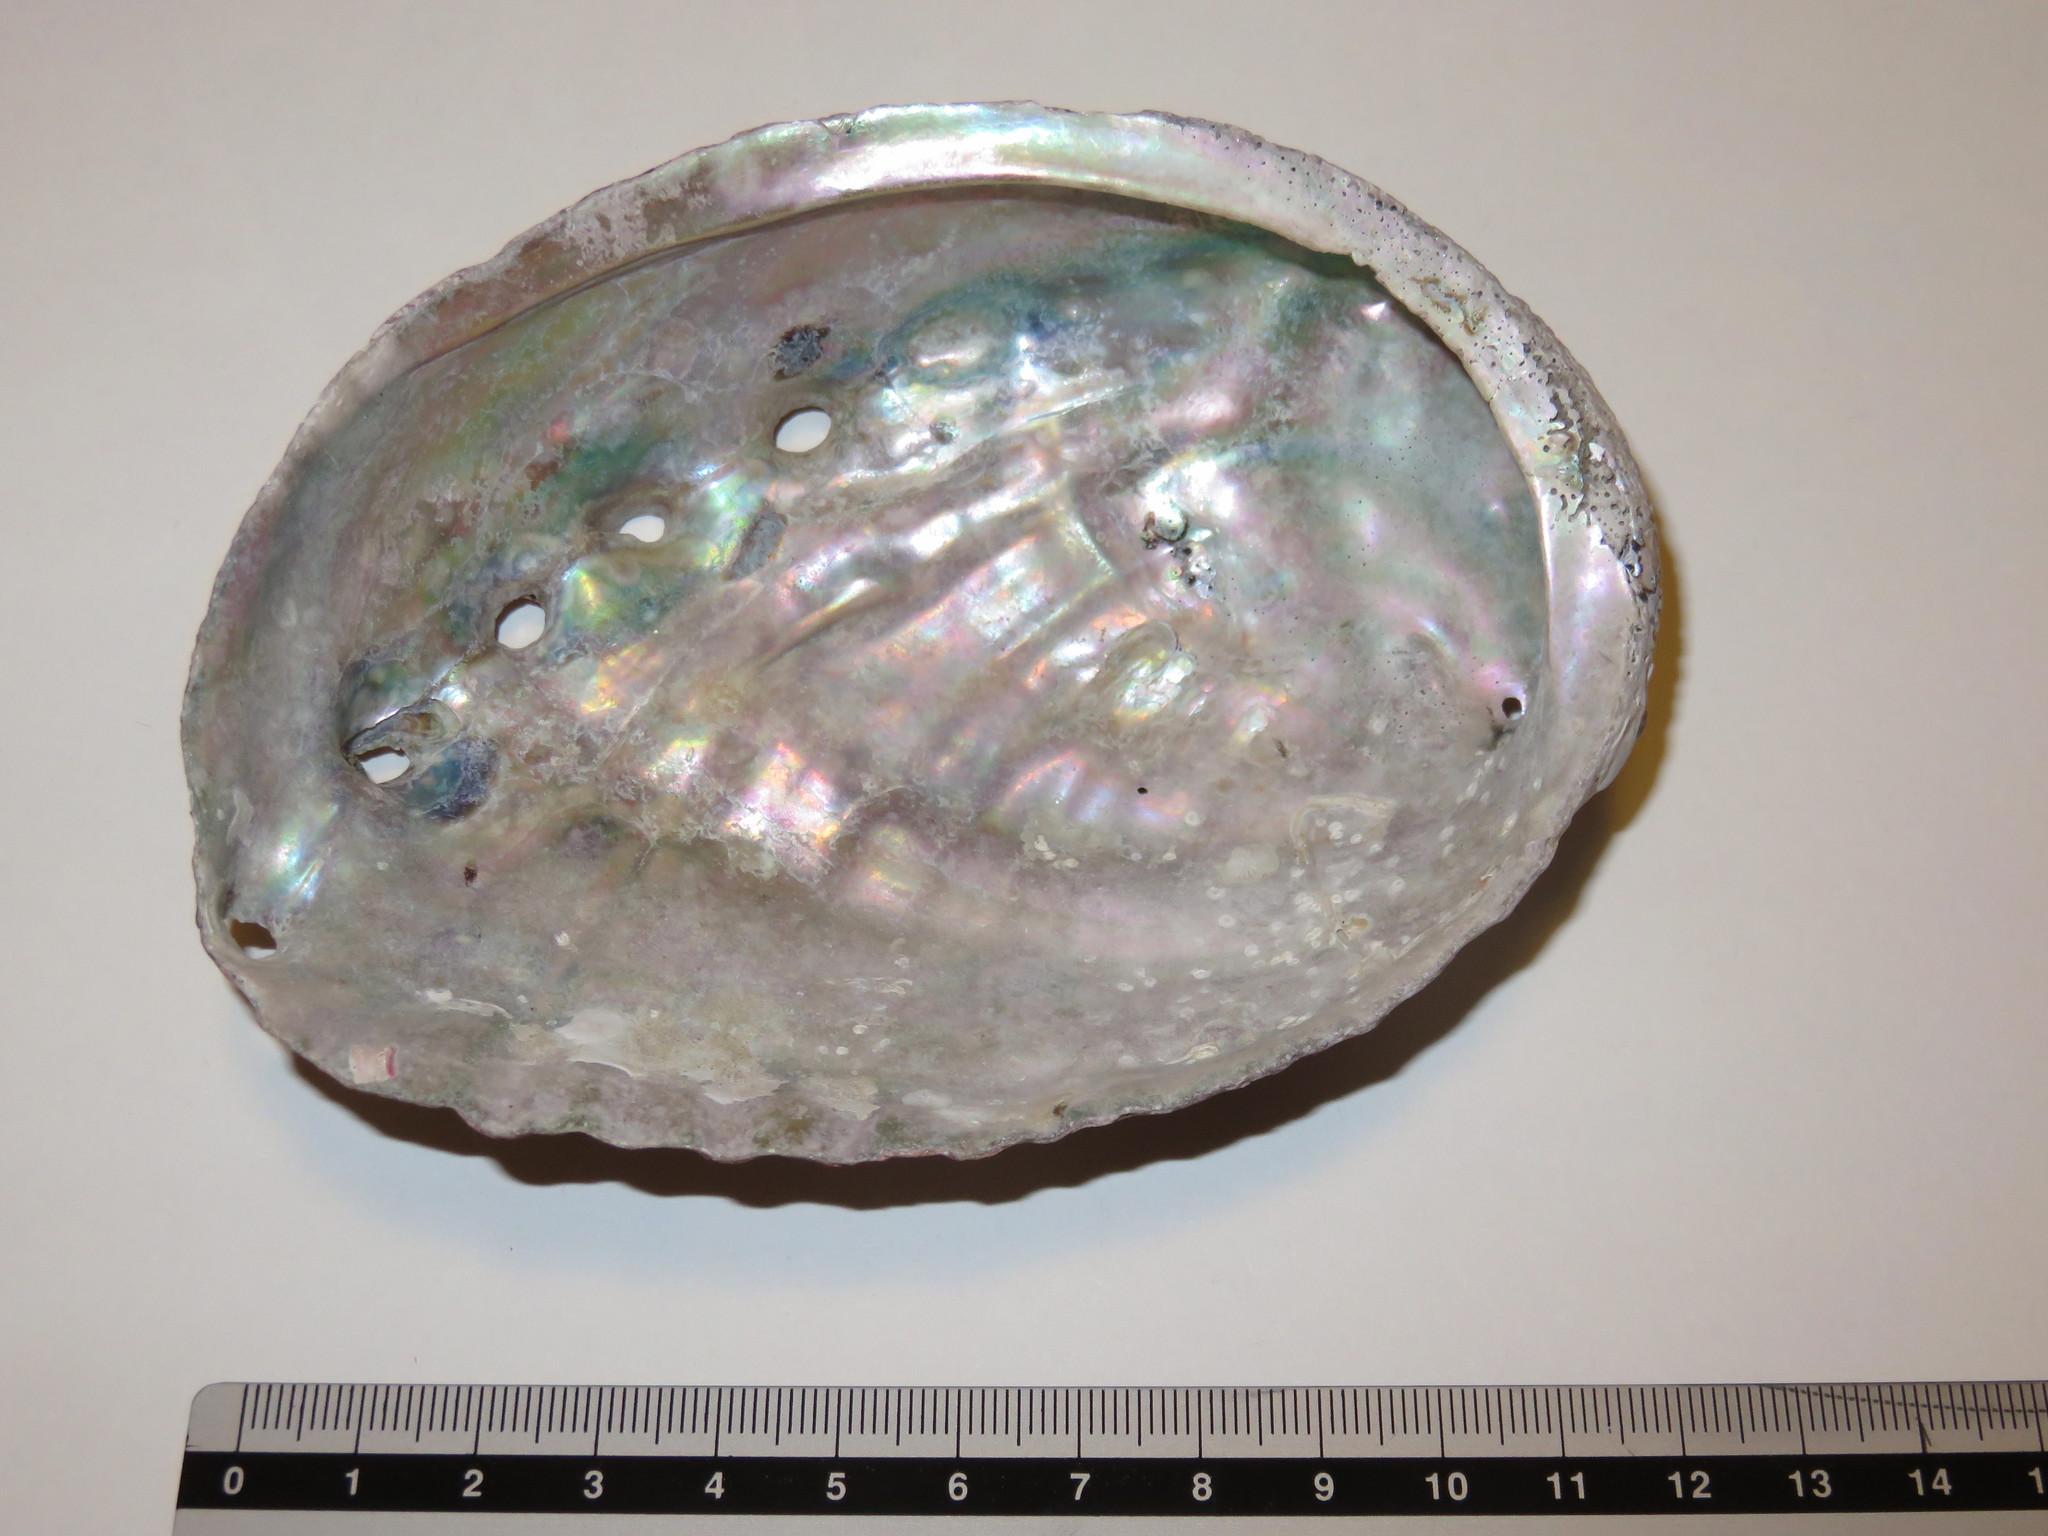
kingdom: Animalia
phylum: Mollusca
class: Gastropoda
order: Lepetellida
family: Haliotidae
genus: Haliotis
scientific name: Haliotis discus
